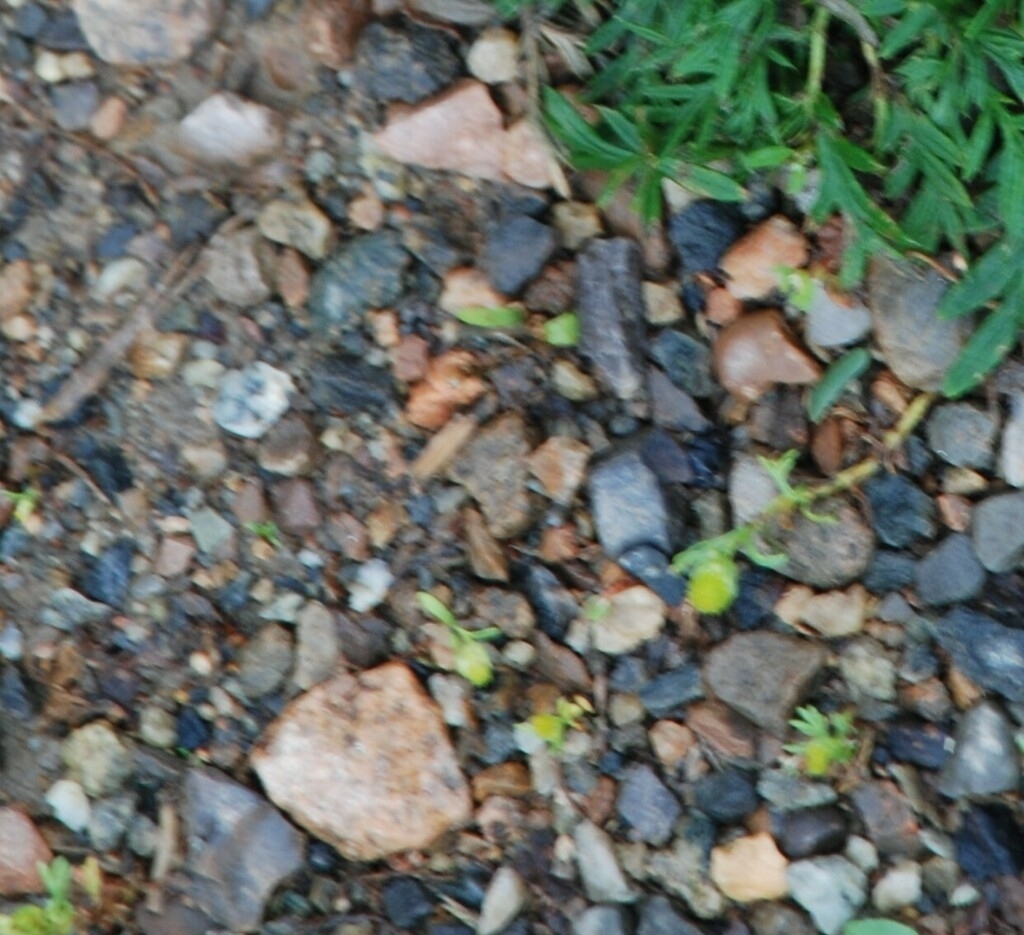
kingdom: Plantae
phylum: Tracheophyta
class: Magnoliopsida
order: Asterales
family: Asteraceae
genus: Matricaria
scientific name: Matricaria discoidea
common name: Disc mayweed
